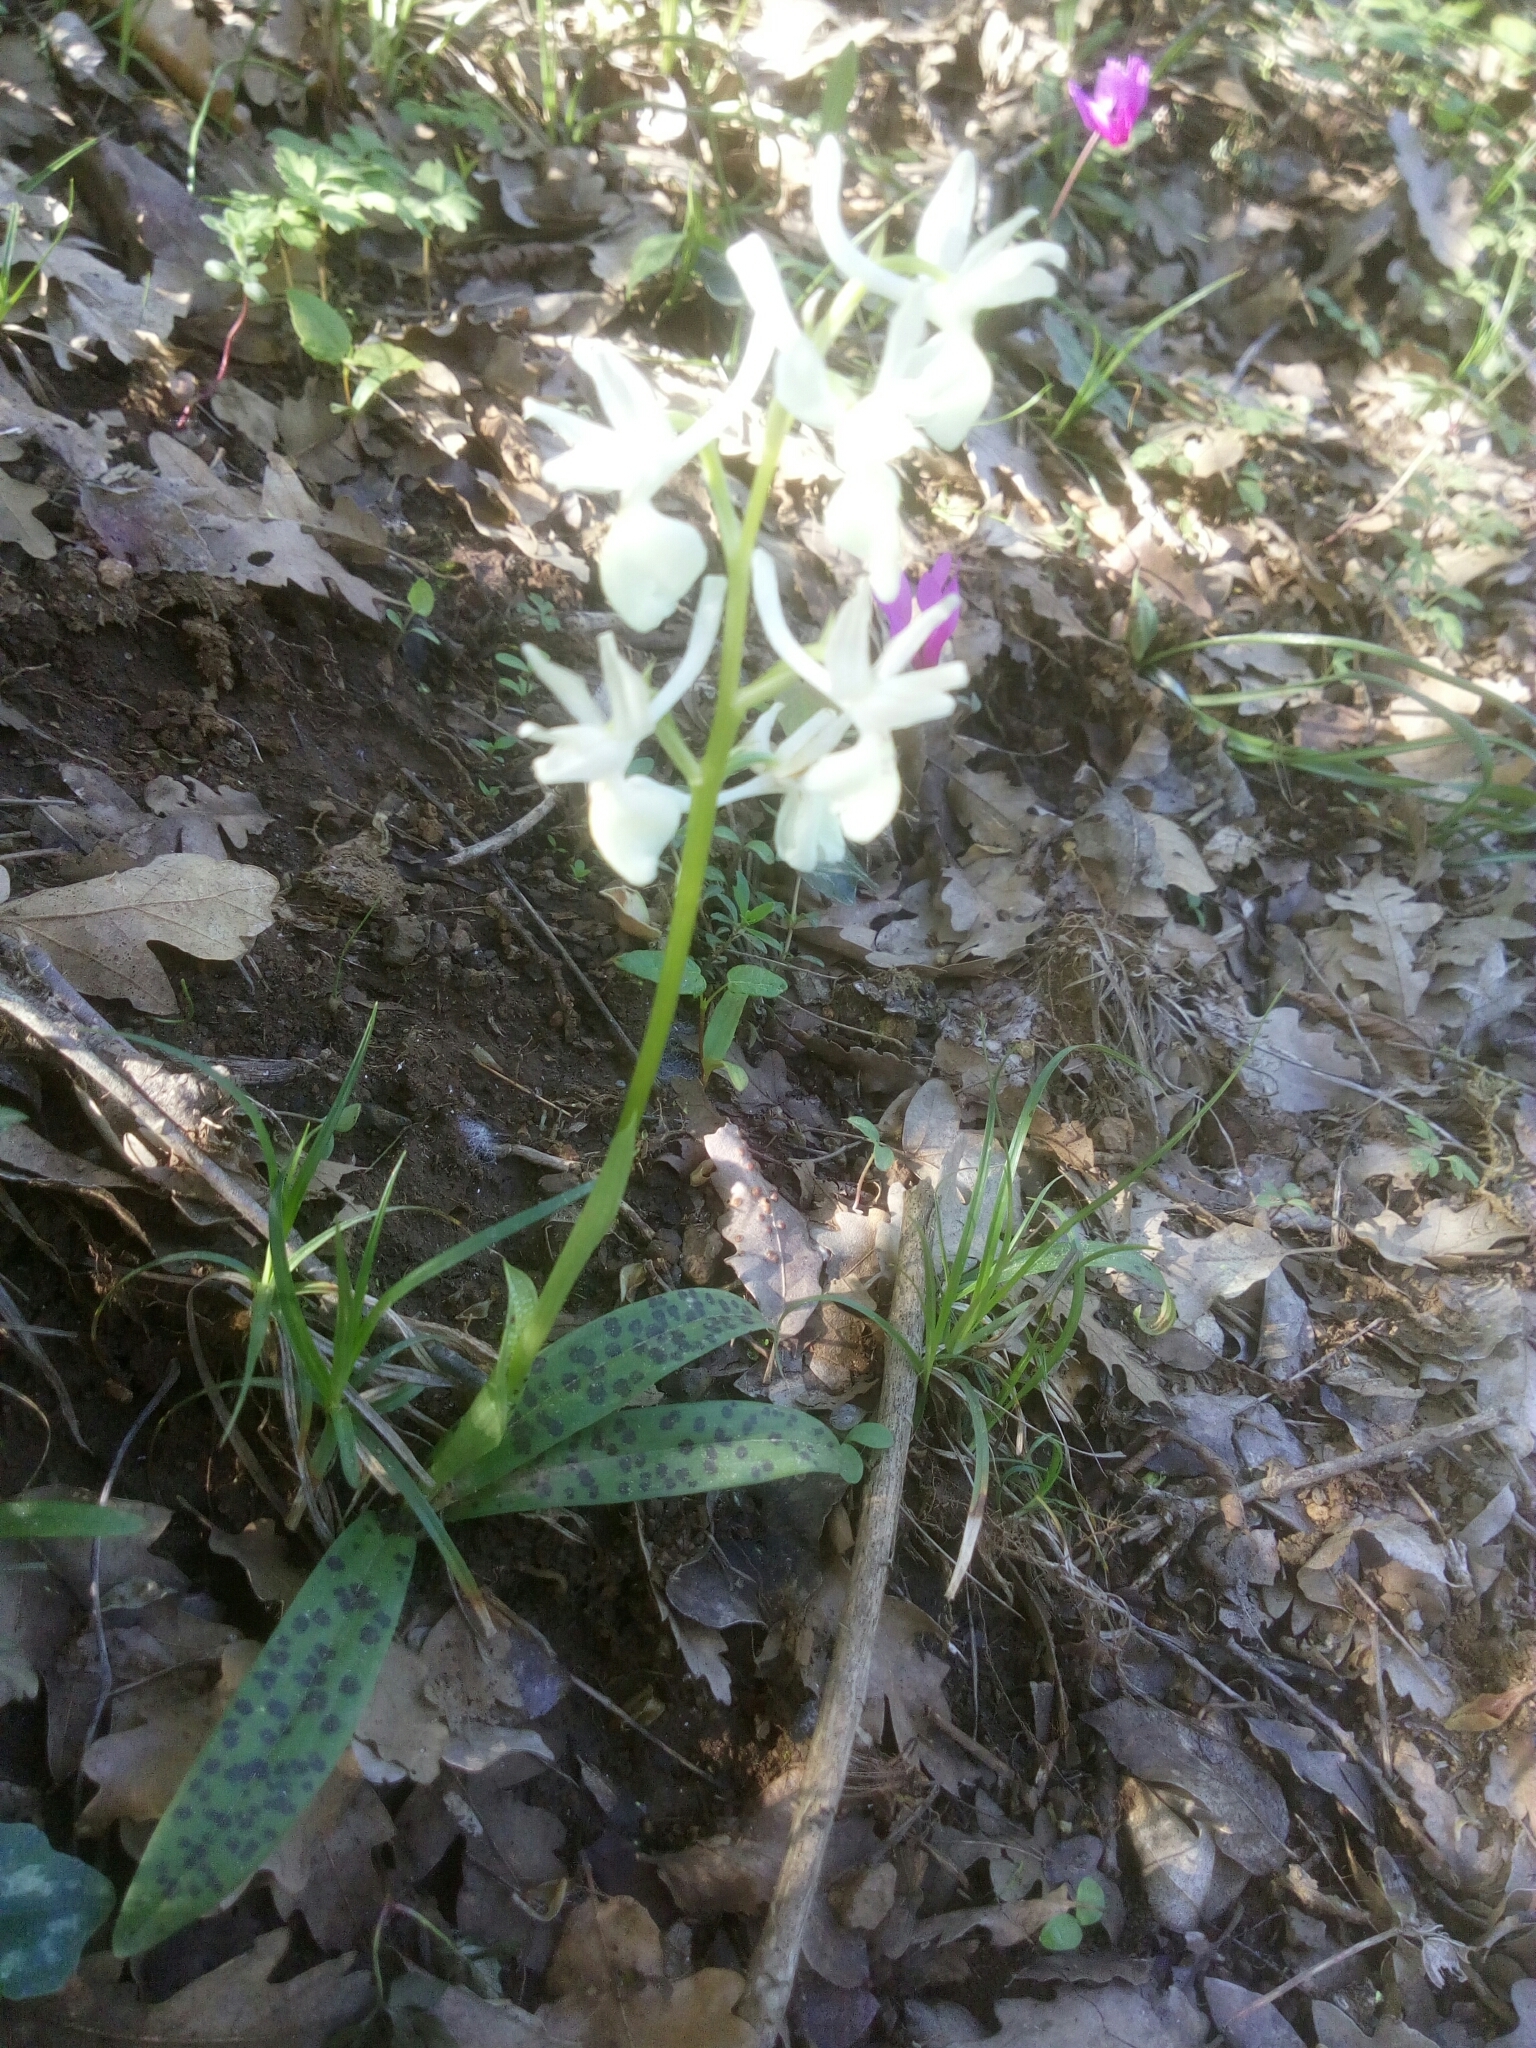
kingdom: Plantae
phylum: Tracheophyta
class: Liliopsida
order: Asparagales
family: Orchidaceae
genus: Orchis
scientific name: Orchis provincialis
